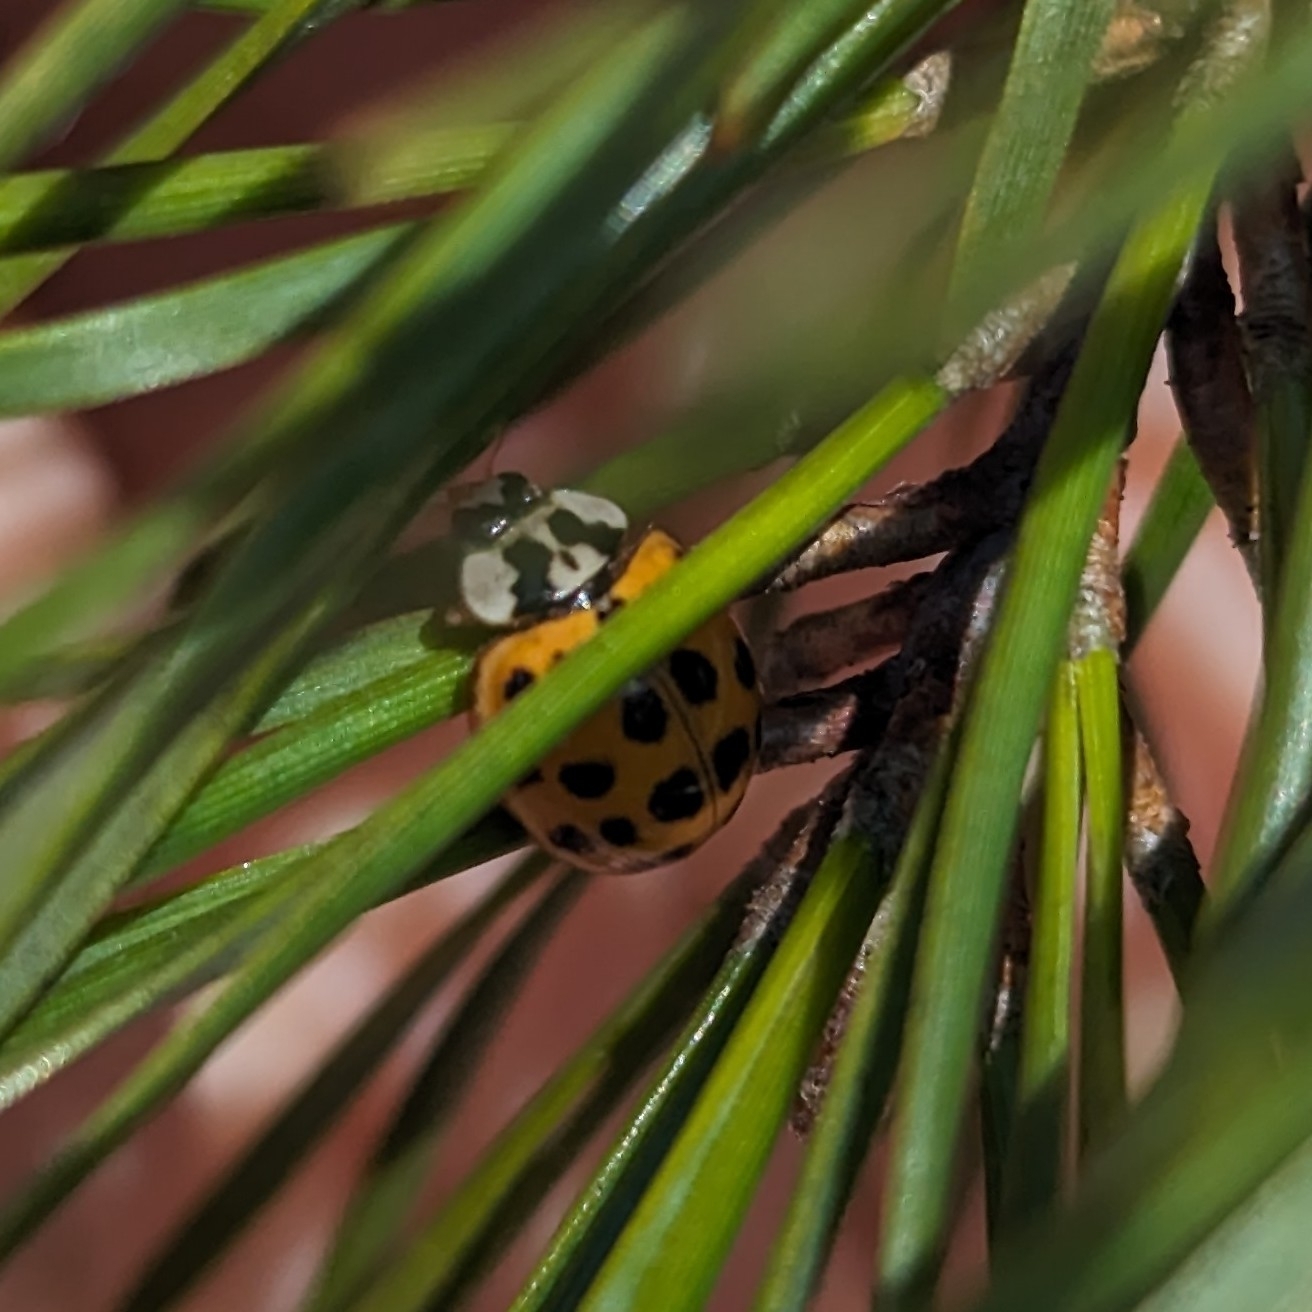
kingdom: Animalia
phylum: Arthropoda
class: Insecta
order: Coleoptera
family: Coccinellidae
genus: Harmonia
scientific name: Harmonia axyridis
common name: Harlequin ladybird
